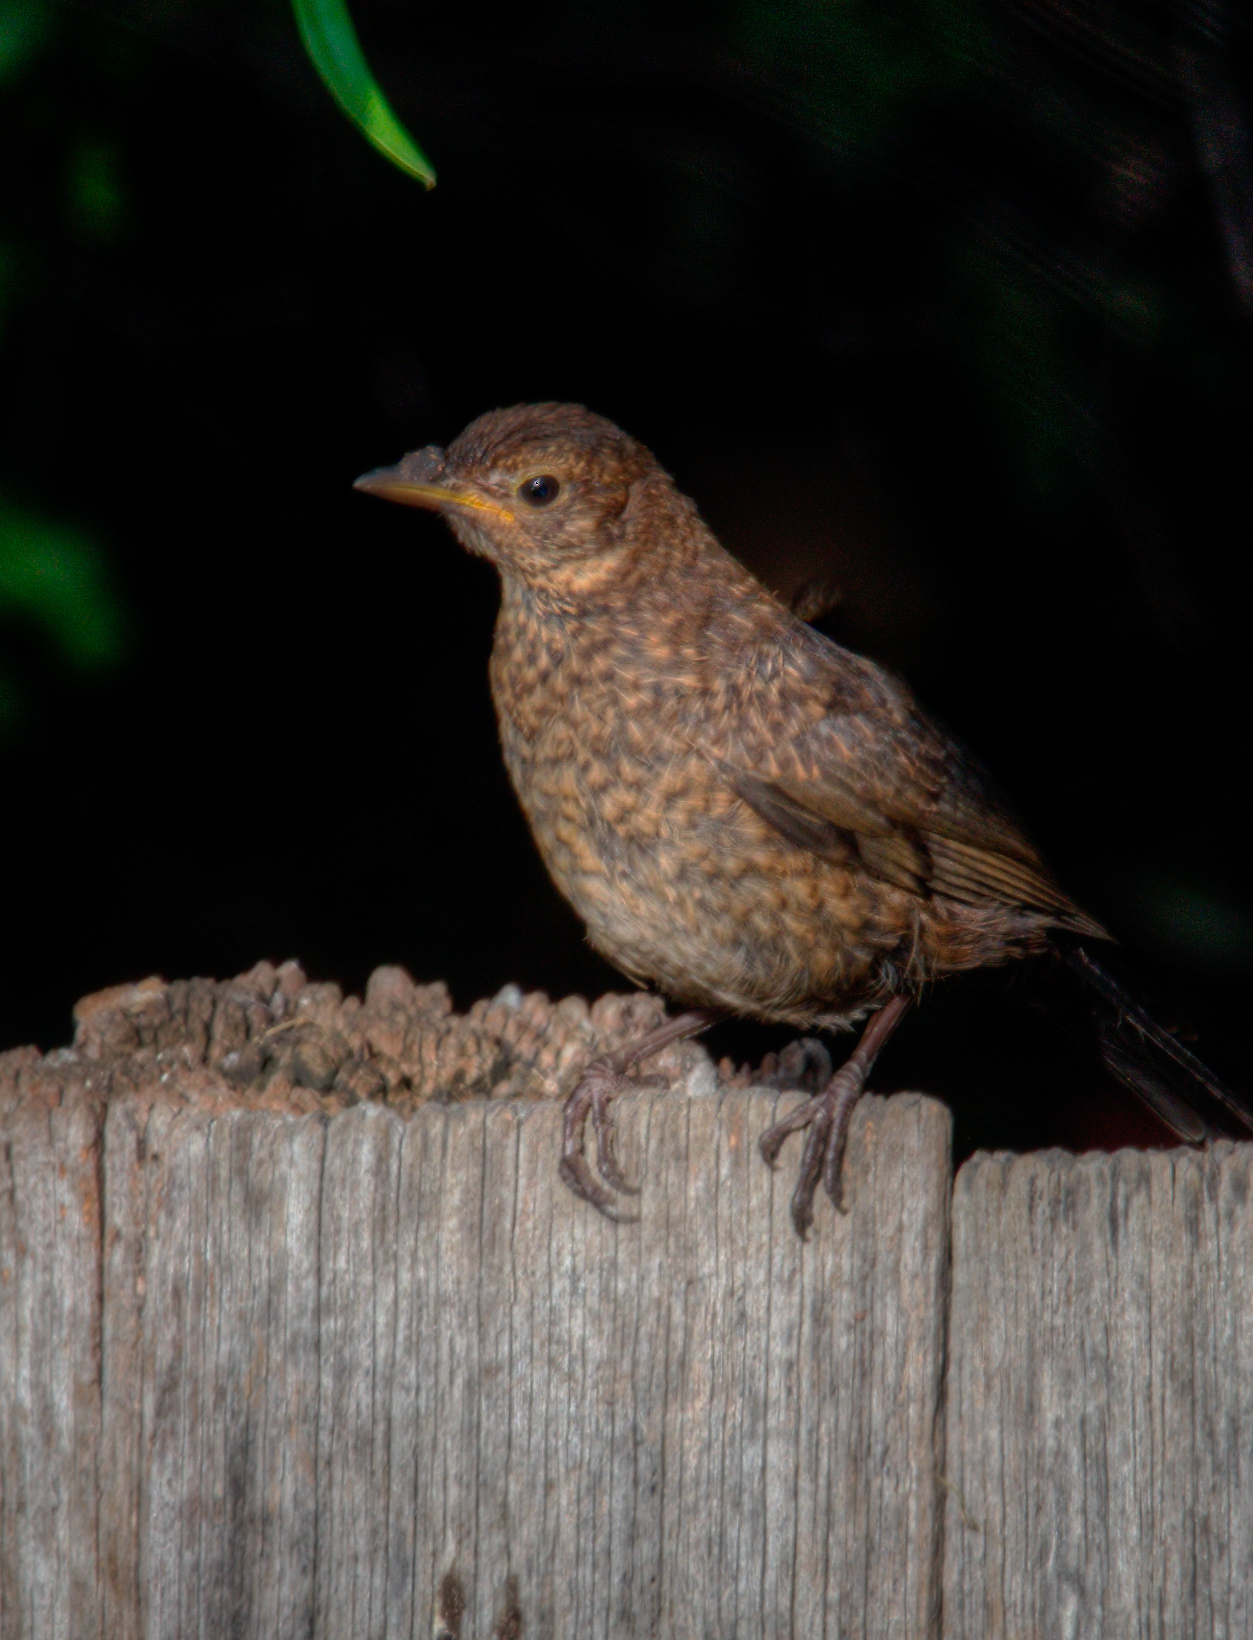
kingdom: Animalia
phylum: Chordata
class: Aves
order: Passeriformes
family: Turdidae
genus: Turdus
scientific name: Turdus merula
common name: Common blackbird
